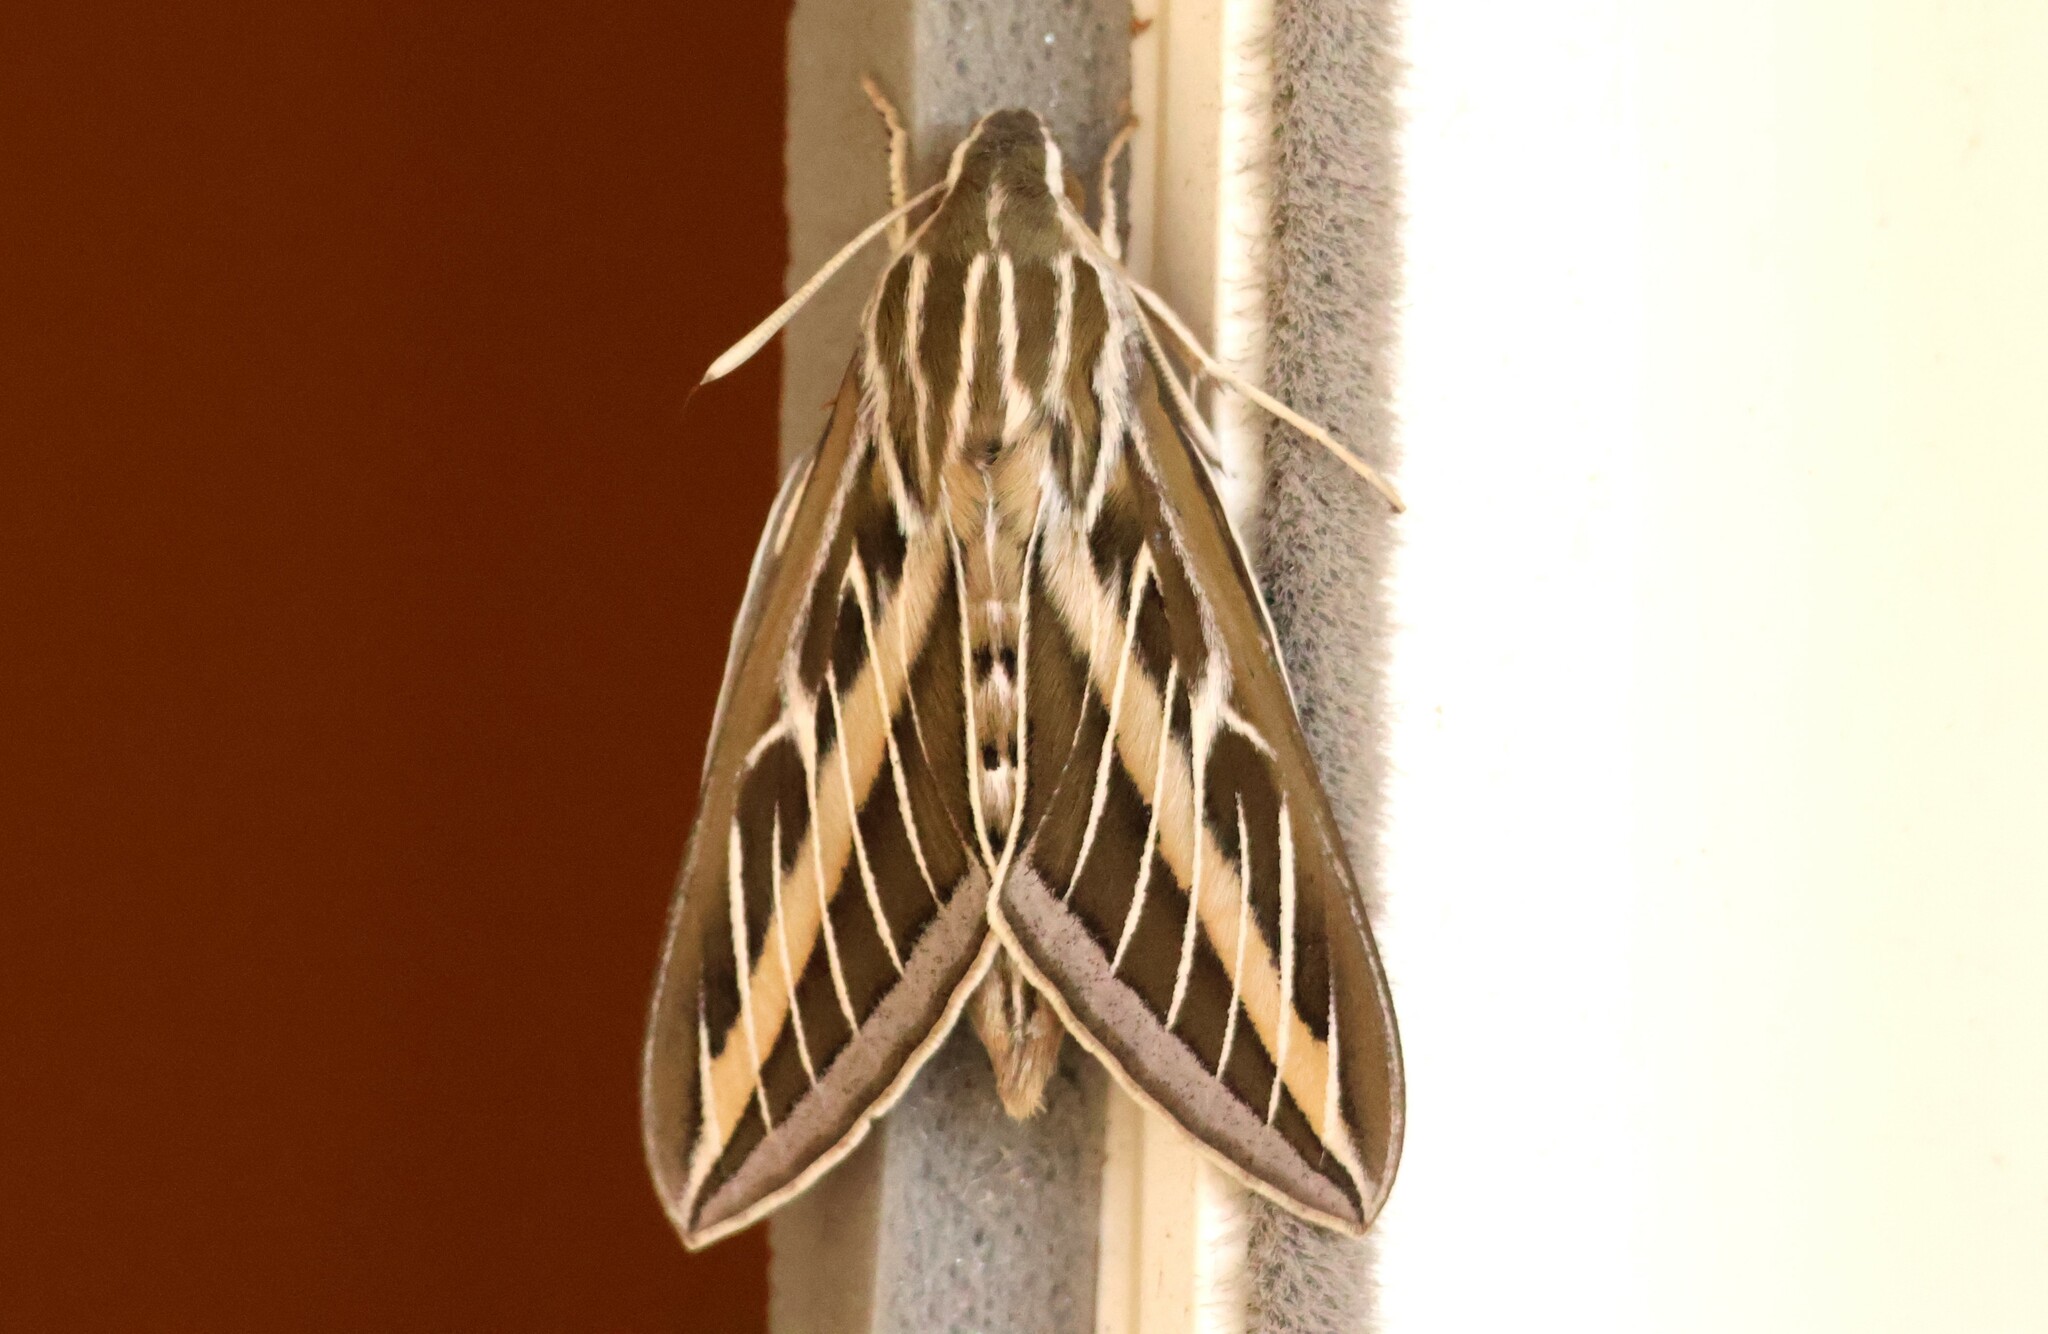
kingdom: Animalia
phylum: Arthropoda
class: Insecta
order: Lepidoptera
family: Sphingidae
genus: Hyles
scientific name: Hyles lineata
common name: White-lined sphinx
